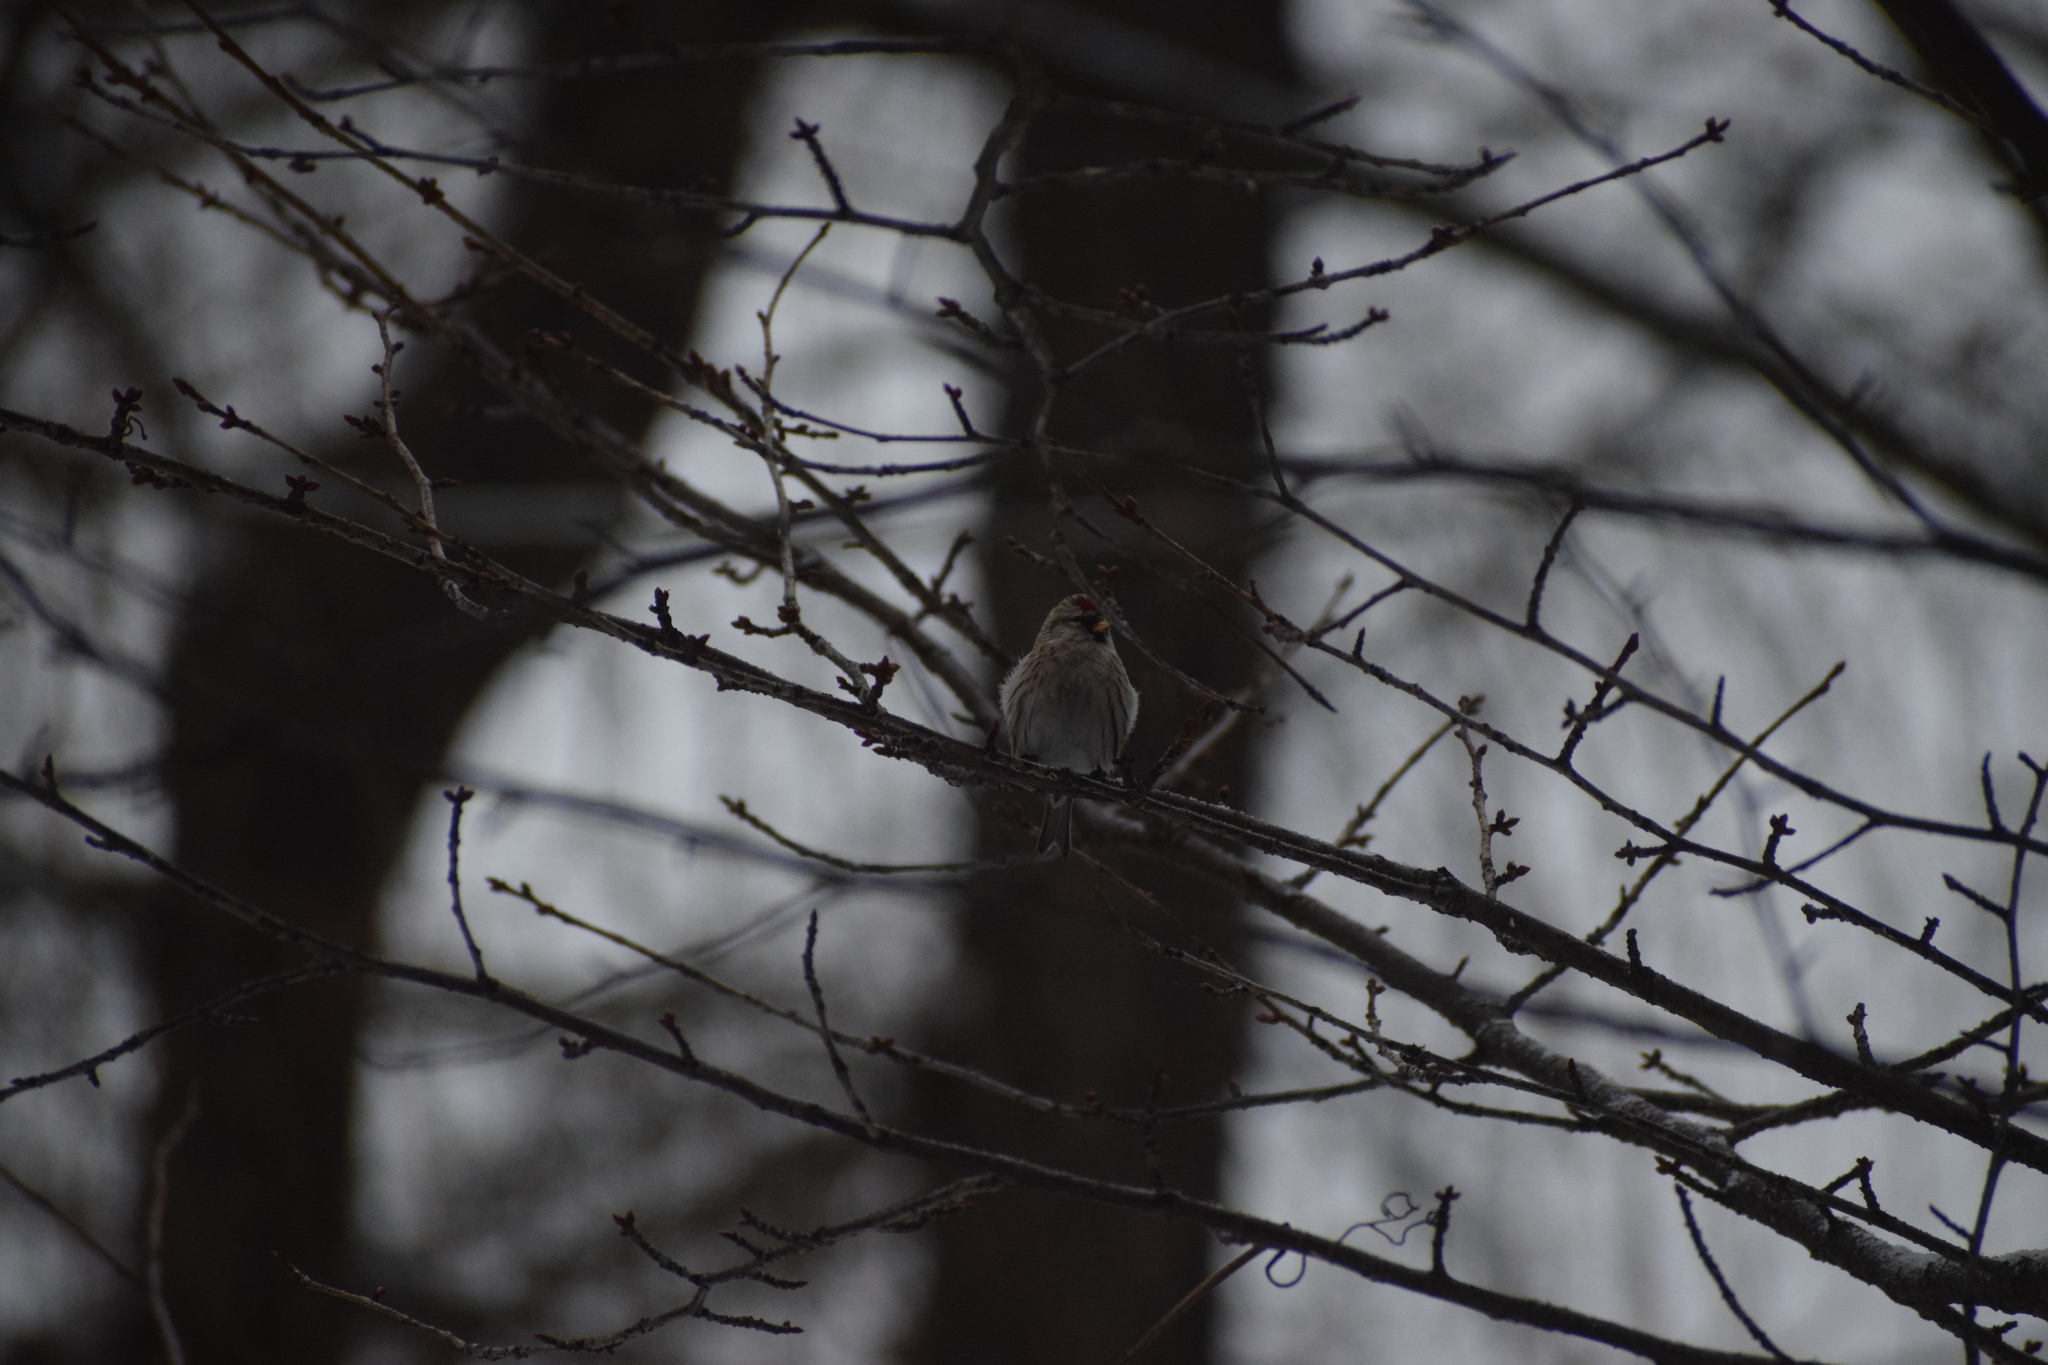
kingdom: Animalia
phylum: Chordata
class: Aves
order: Passeriformes
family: Fringillidae
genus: Acanthis
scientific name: Acanthis flammea
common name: Common redpoll
